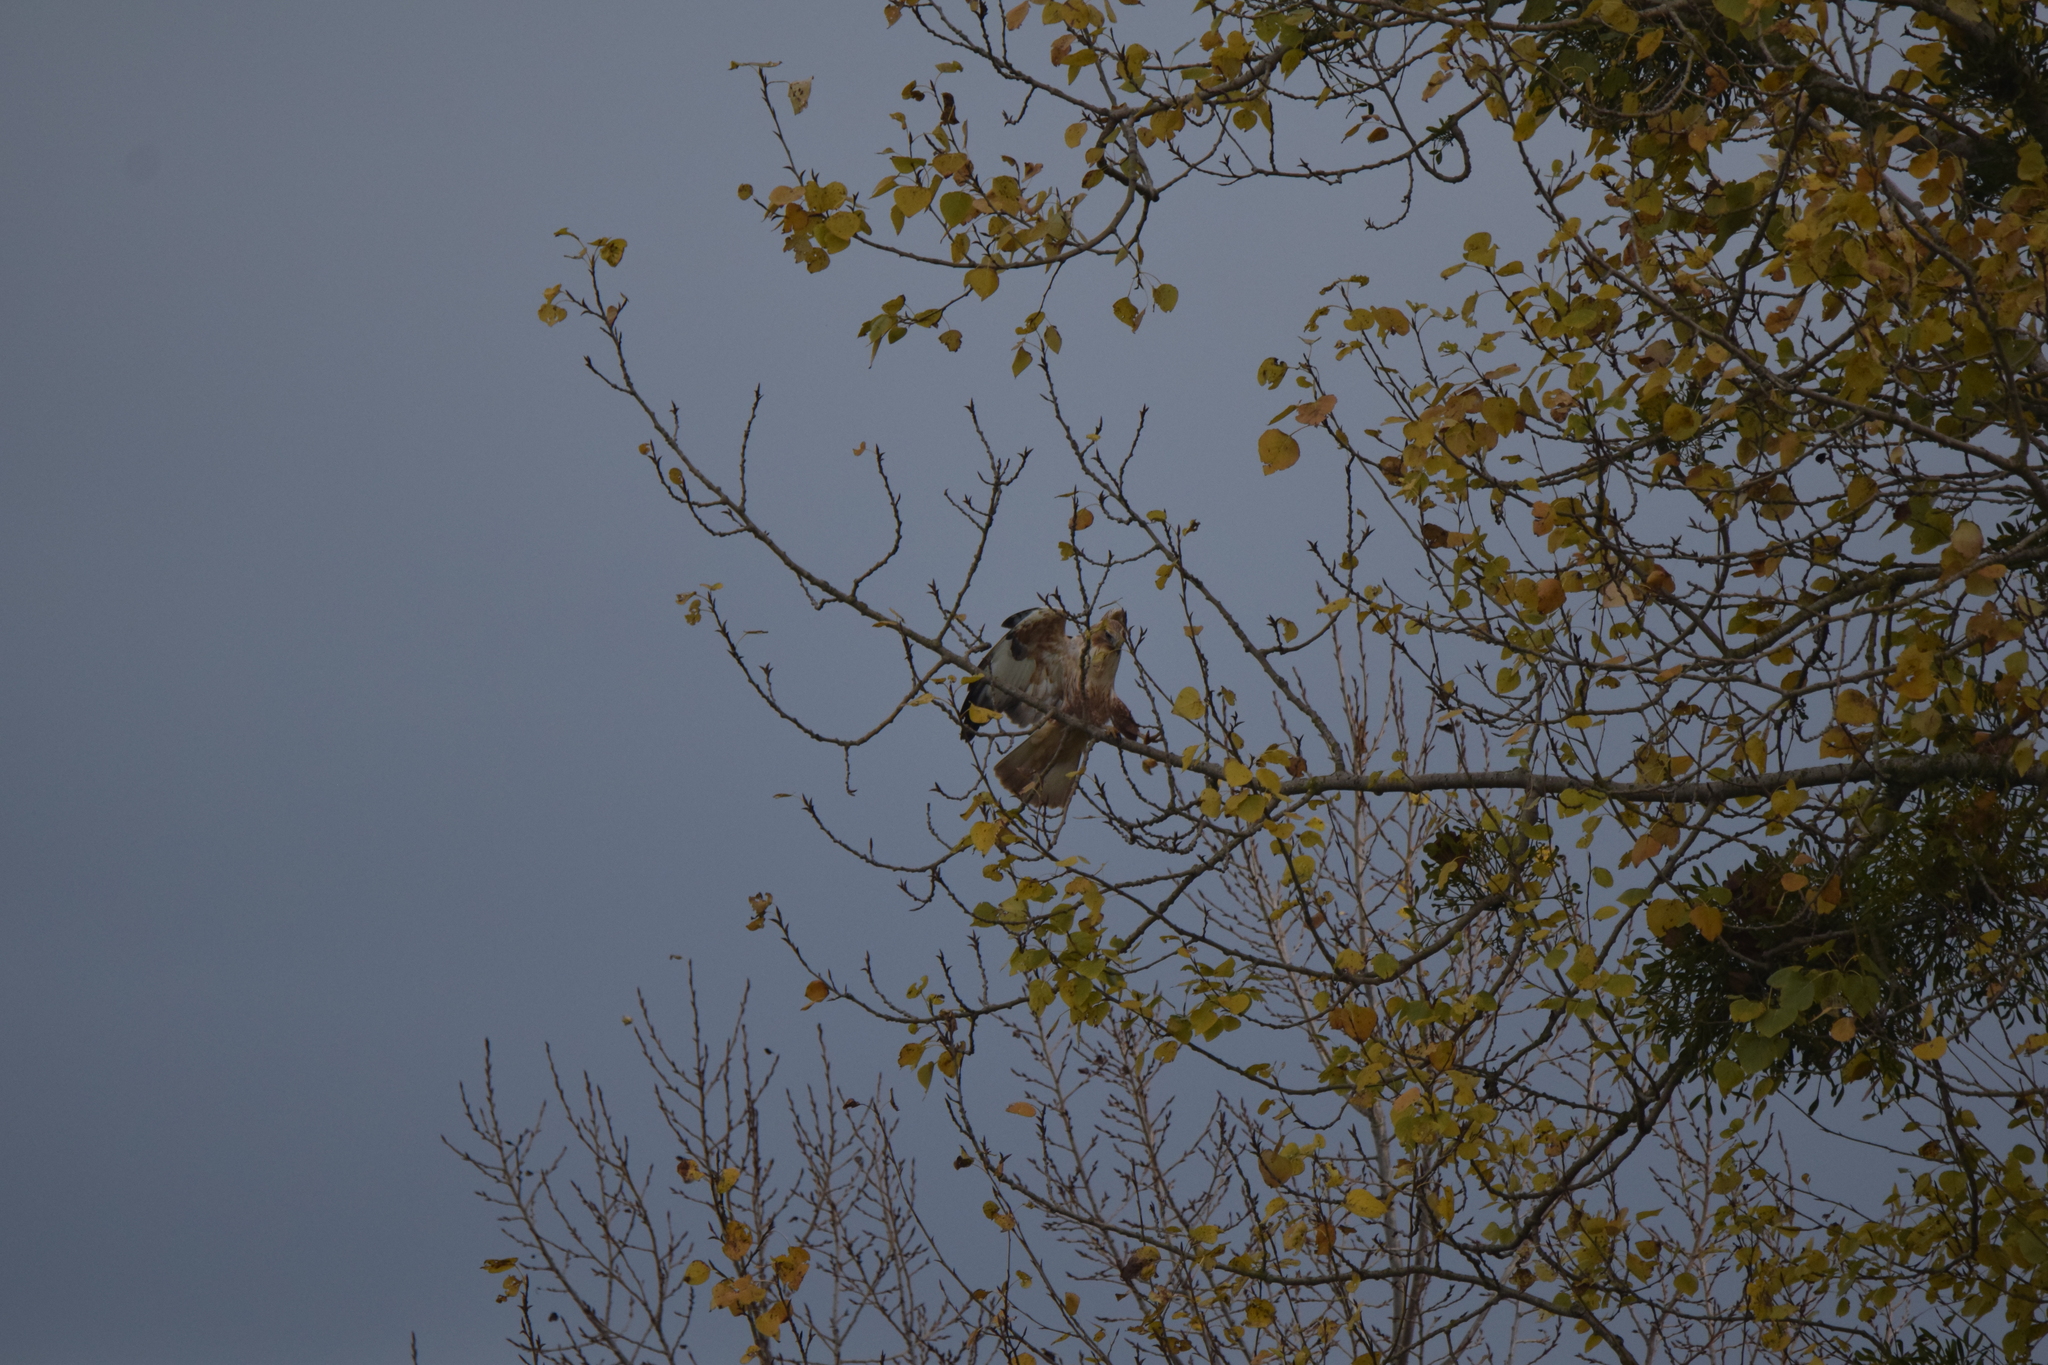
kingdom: Animalia
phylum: Chordata
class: Aves
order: Accipitriformes
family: Accipitridae
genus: Buteo
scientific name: Buteo rufinus
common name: Long-legged buzzard
